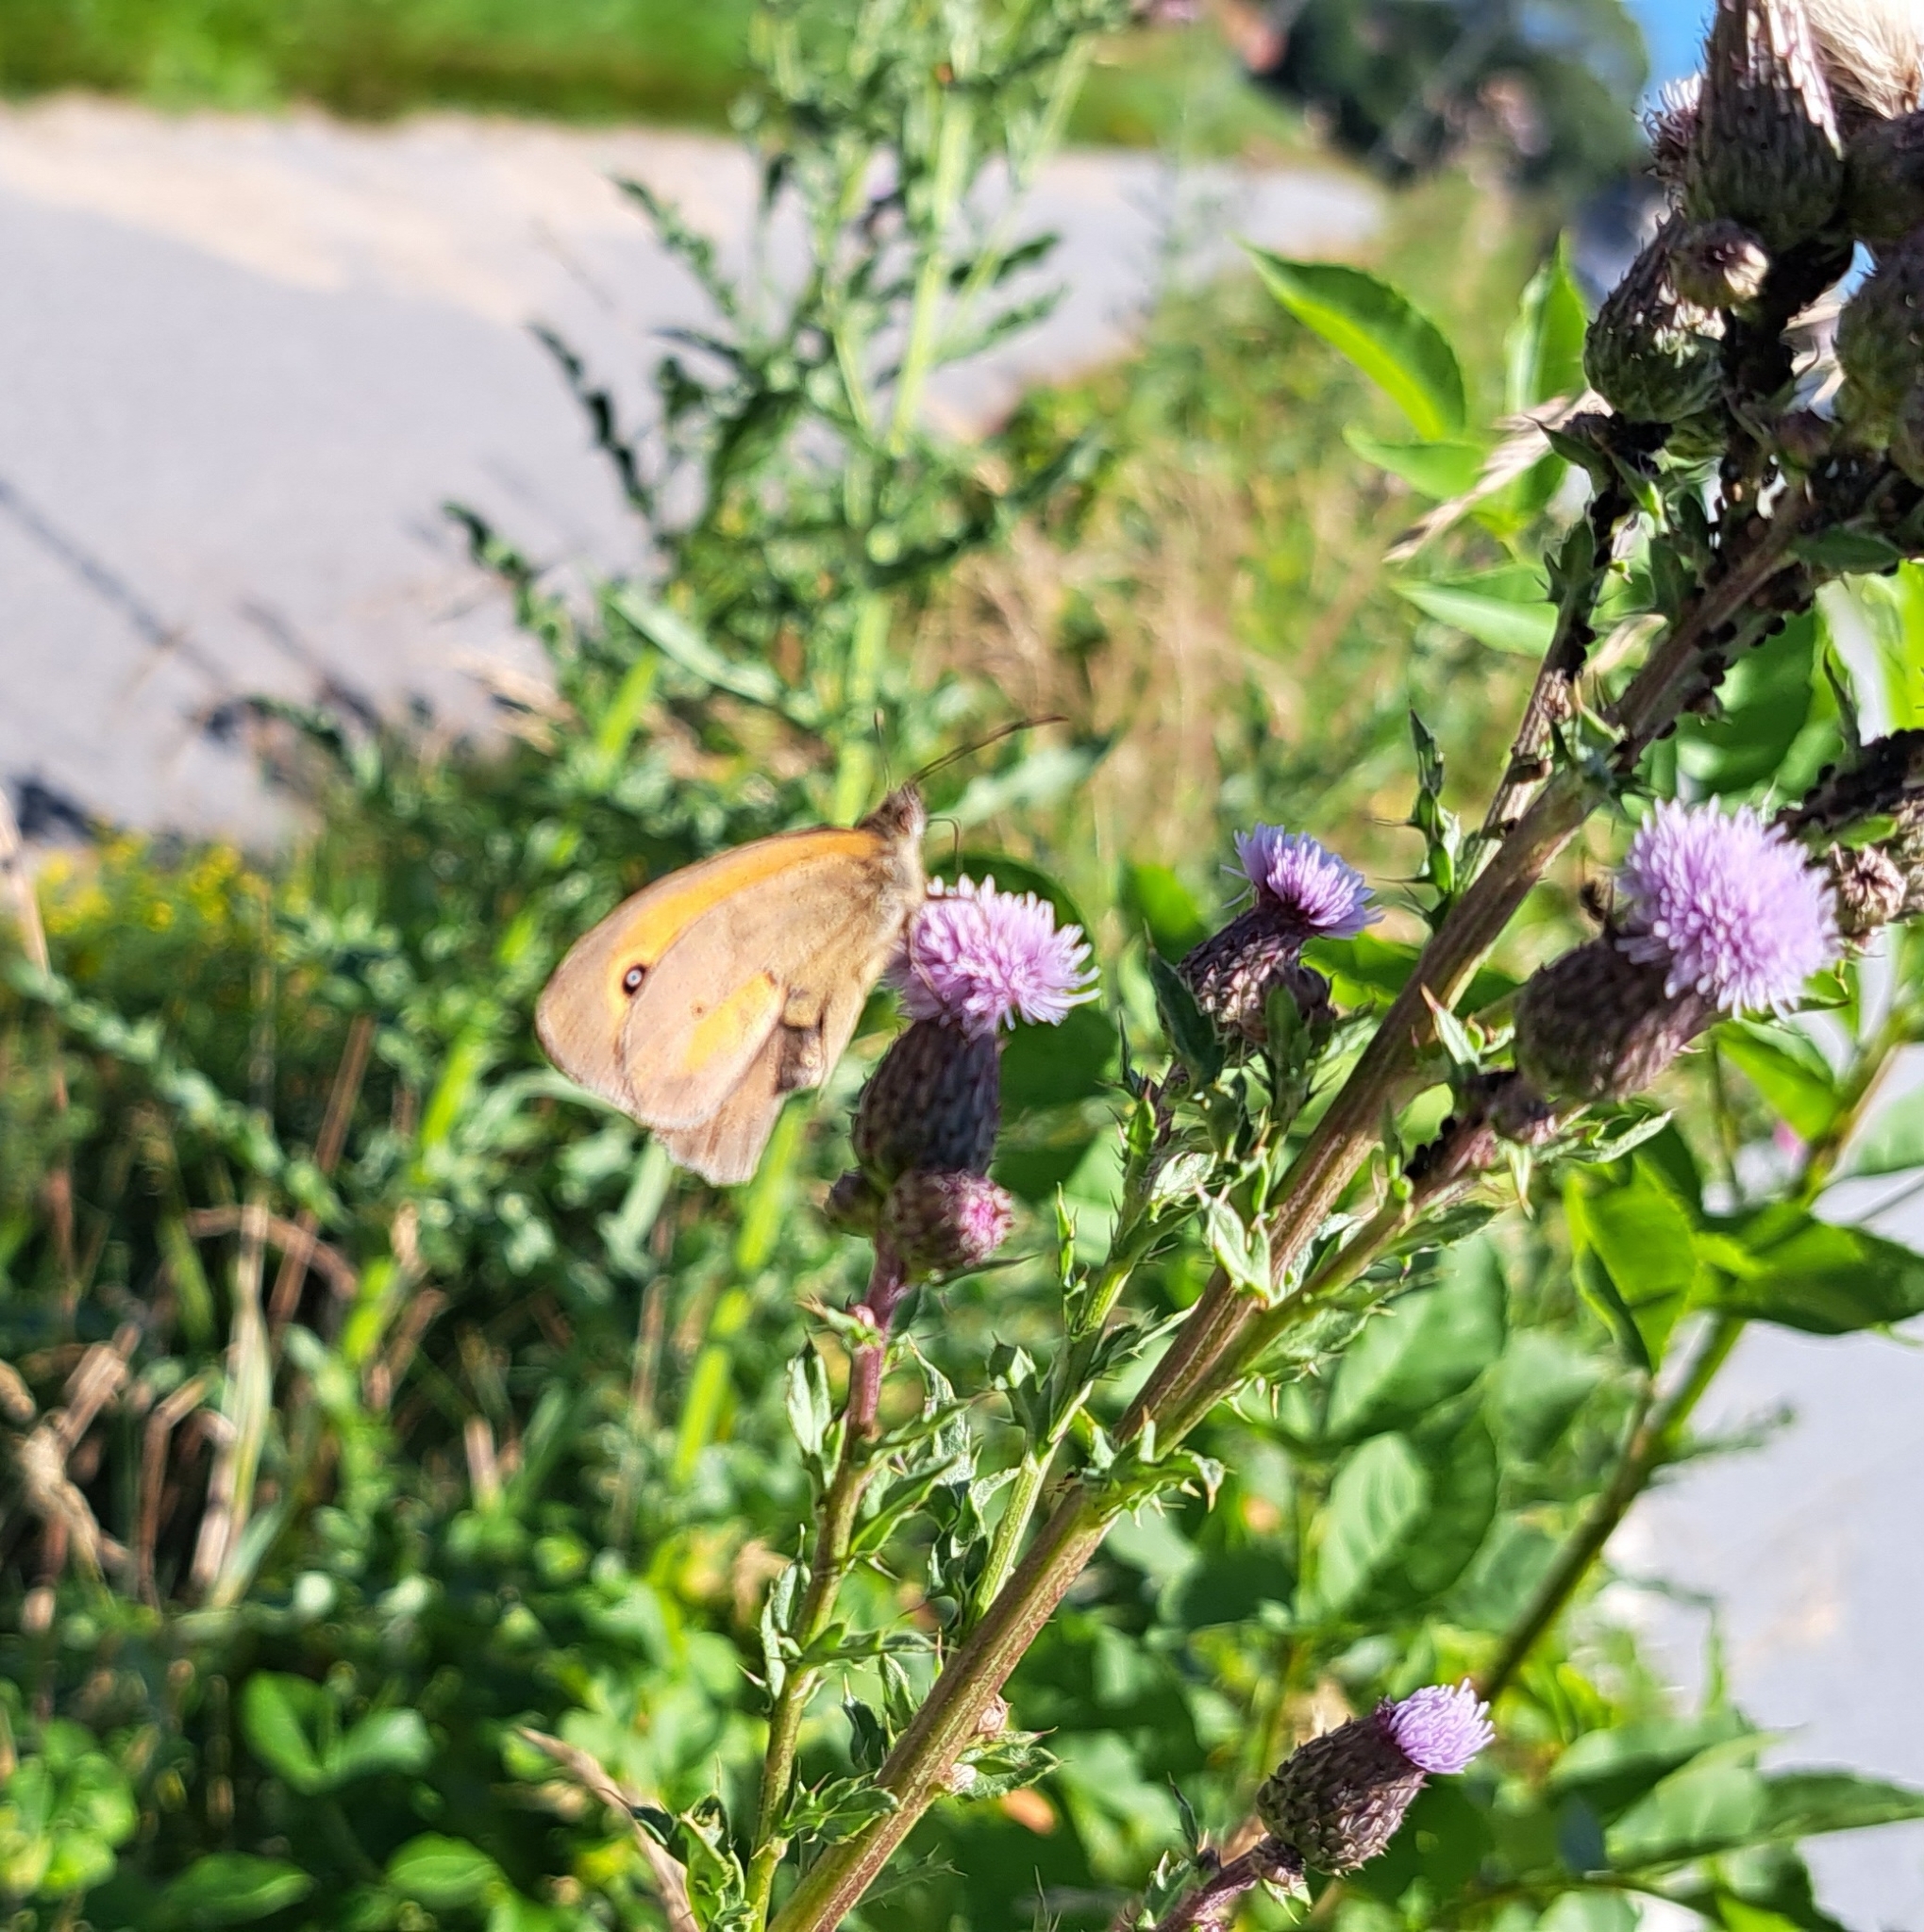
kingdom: Animalia
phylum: Arthropoda
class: Insecta
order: Lepidoptera
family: Nymphalidae
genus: Maniola
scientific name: Maniola jurtina
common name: Meadow brown
